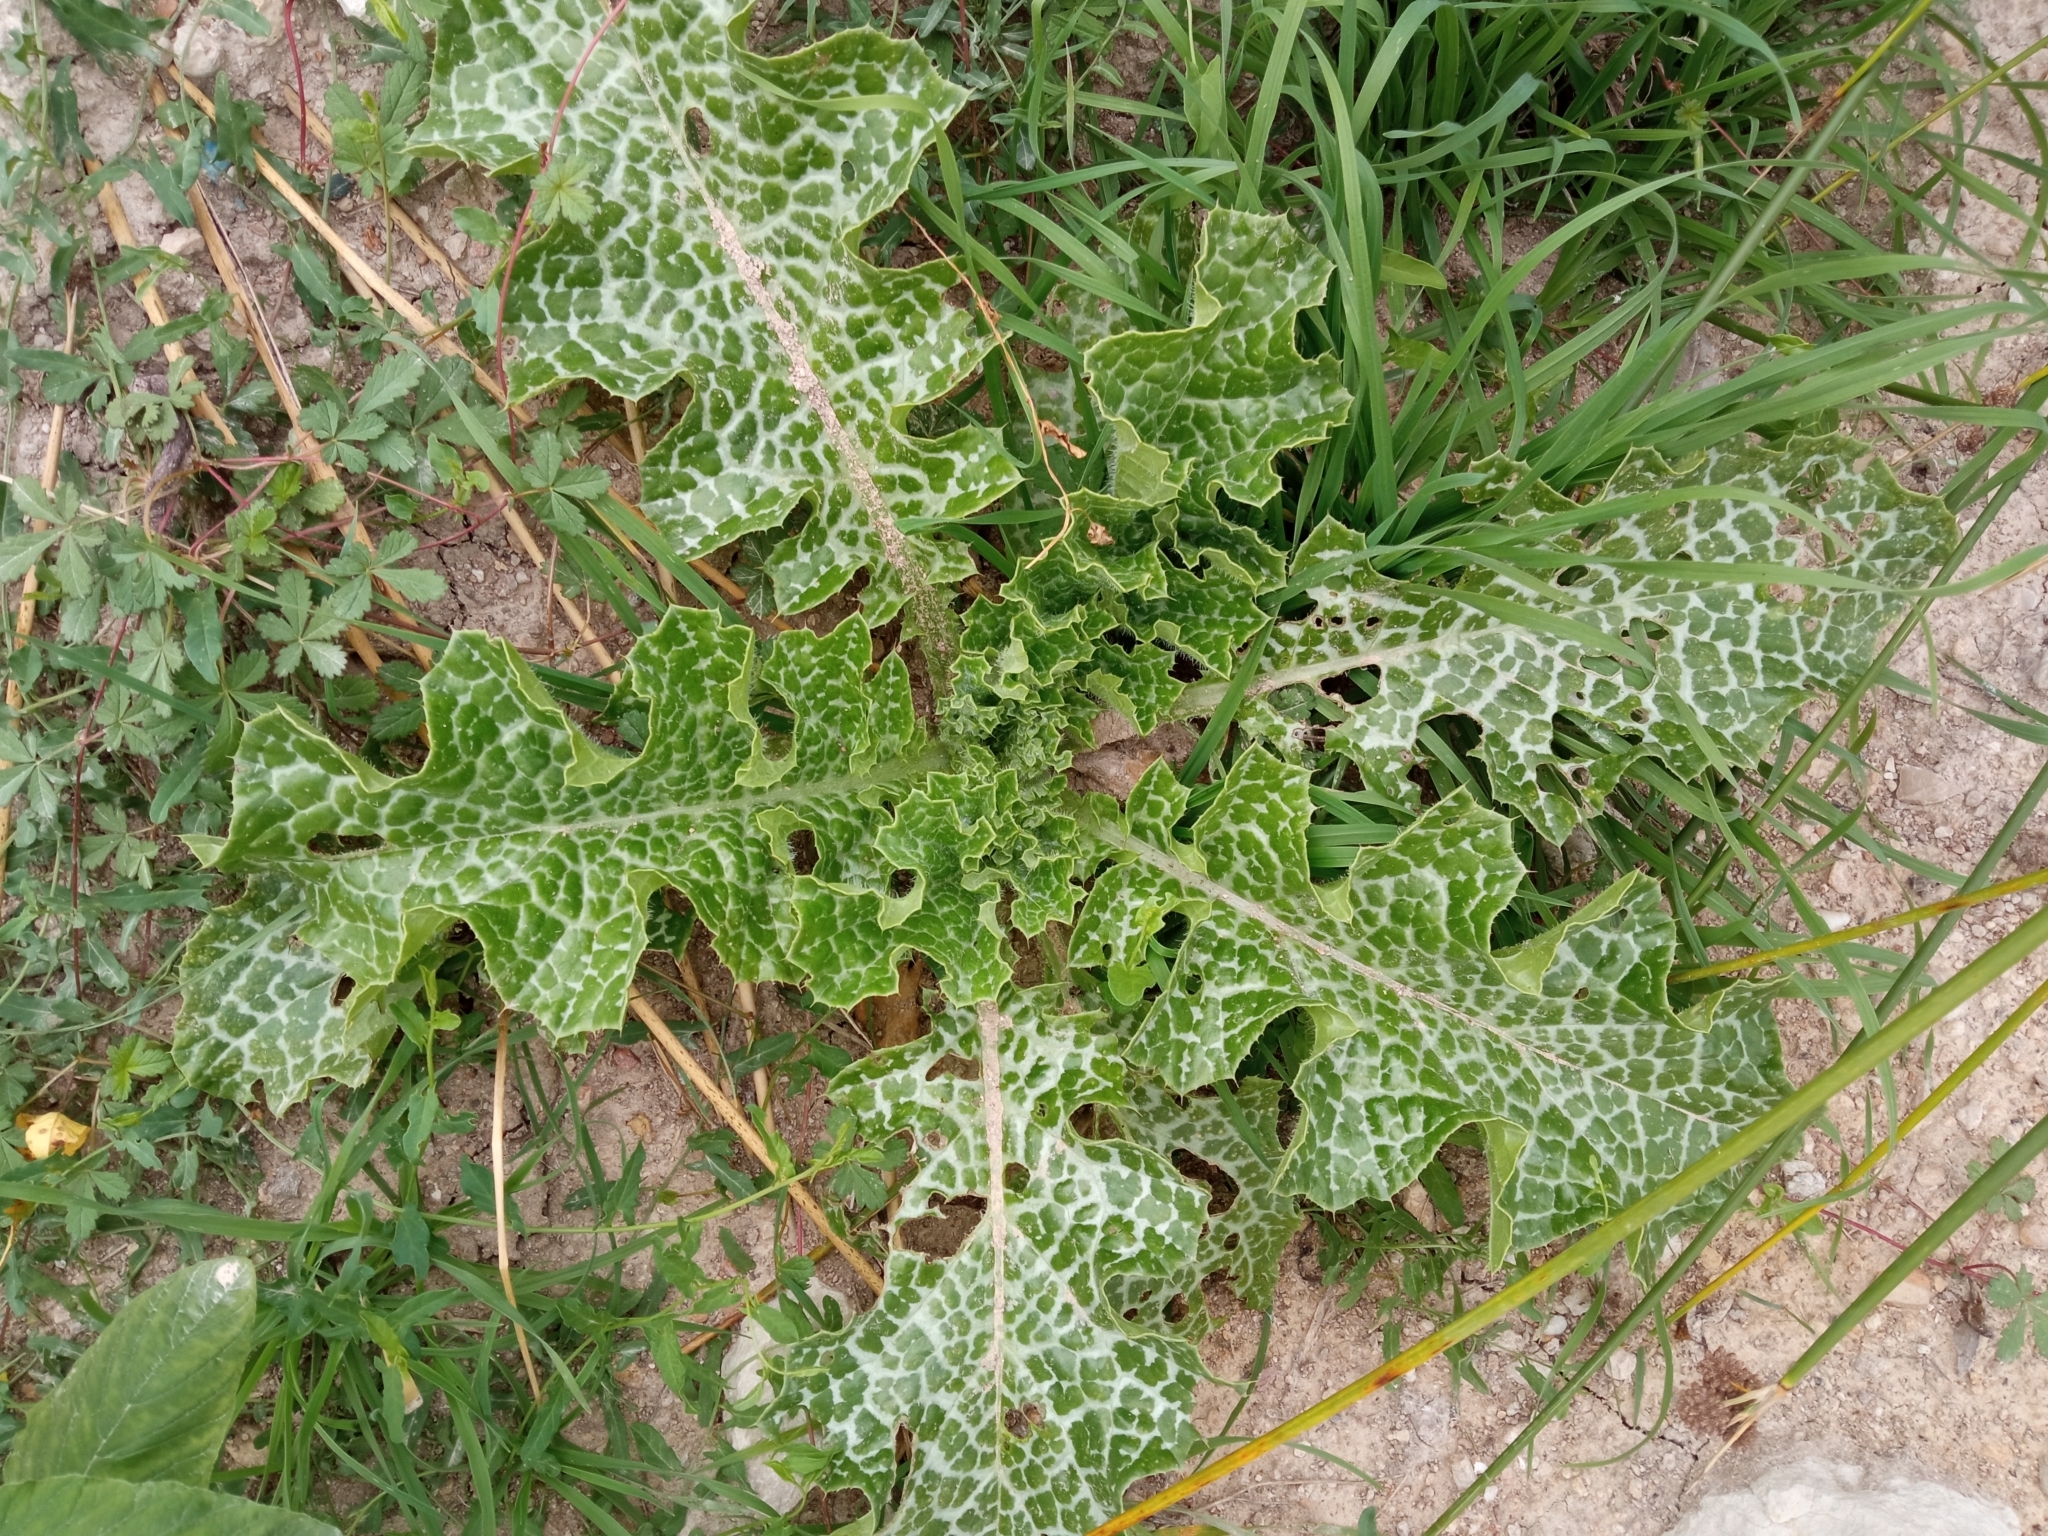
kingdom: Plantae
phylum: Tracheophyta
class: Magnoliopsida
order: Asterales
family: Asteraceae
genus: Silybum
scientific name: Silybum marianum
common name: Milk thistle
